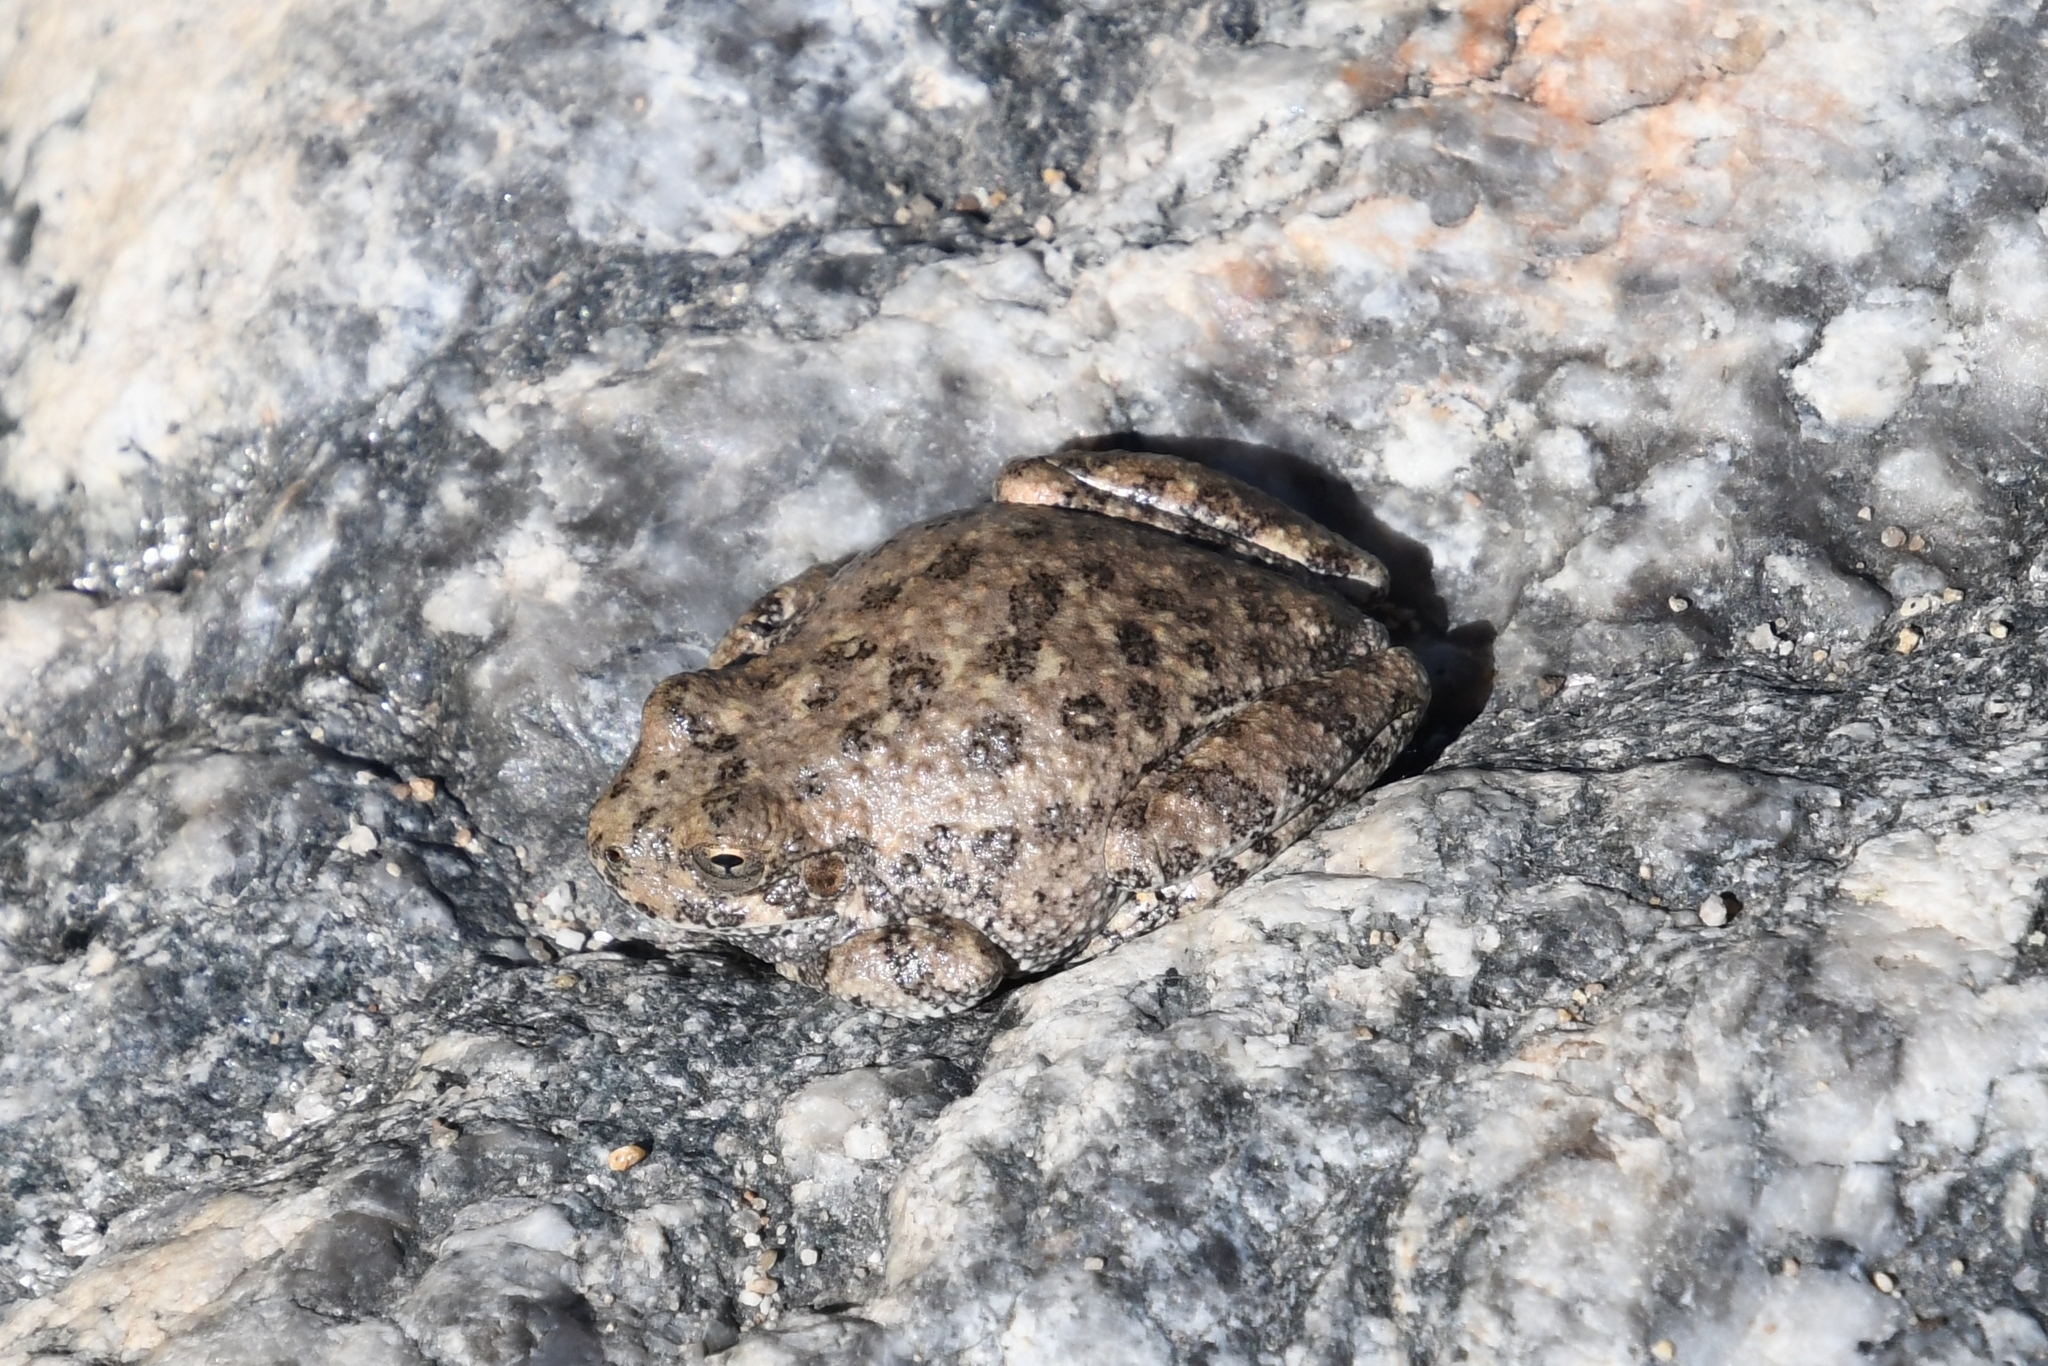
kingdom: Animalia
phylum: Chordata
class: Amphibia
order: Anura
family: Hylidae
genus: Dryophytes
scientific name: Dryophytes arenicolor
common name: Canyon treefrog
